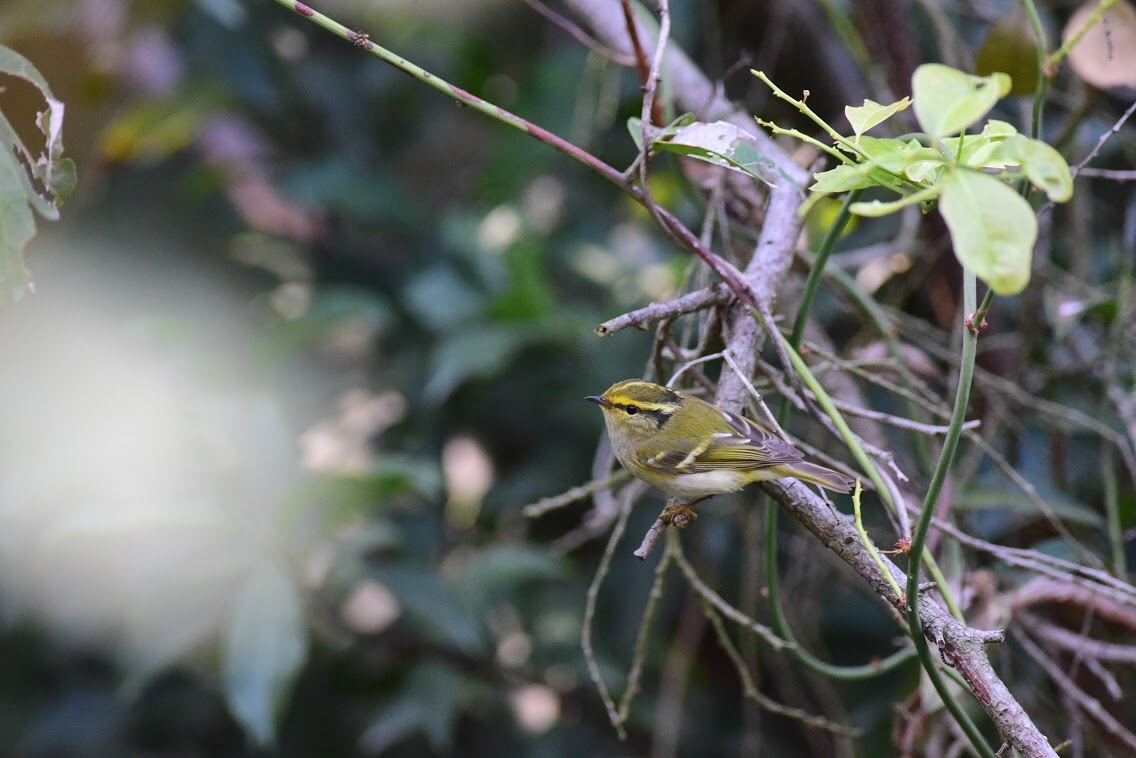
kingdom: Animalia
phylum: Chordata
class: Aves
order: Passeriformes
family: Phylloscopidae
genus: Phylloscopus
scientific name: Phylloscopus proregulus
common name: Pallas's leaf warbler
